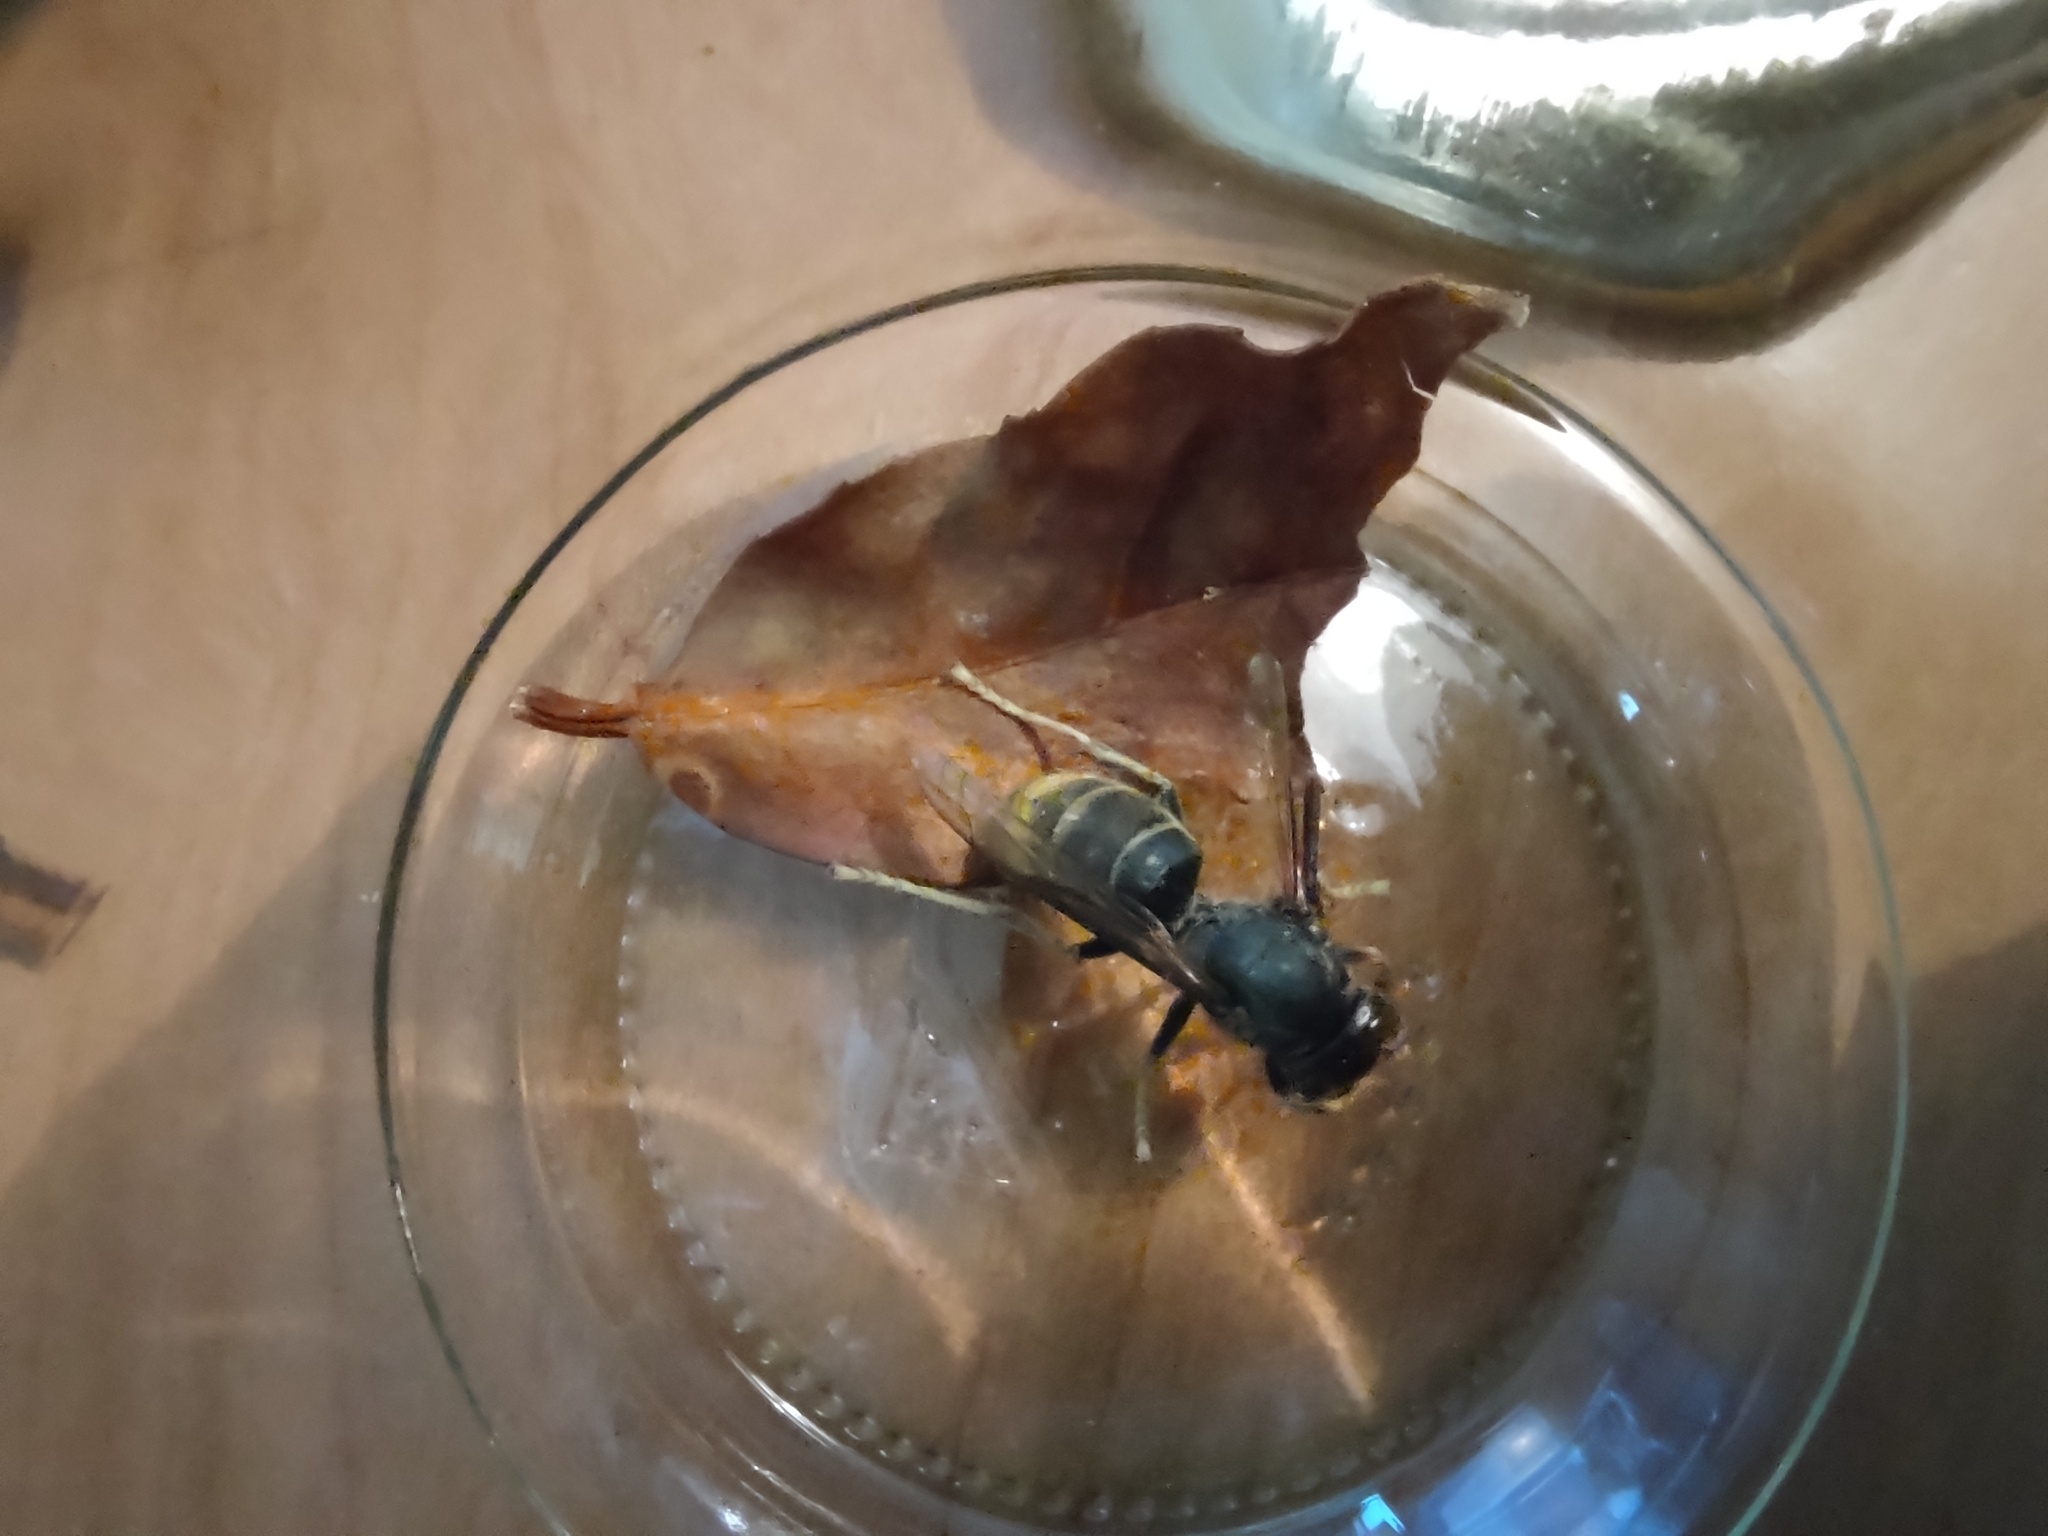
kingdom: Animalia
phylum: Arthropoda
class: Insecta
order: Hymenoptera
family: Vespidae
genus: Vespa
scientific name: Vespa velutina
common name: Asian hornet
